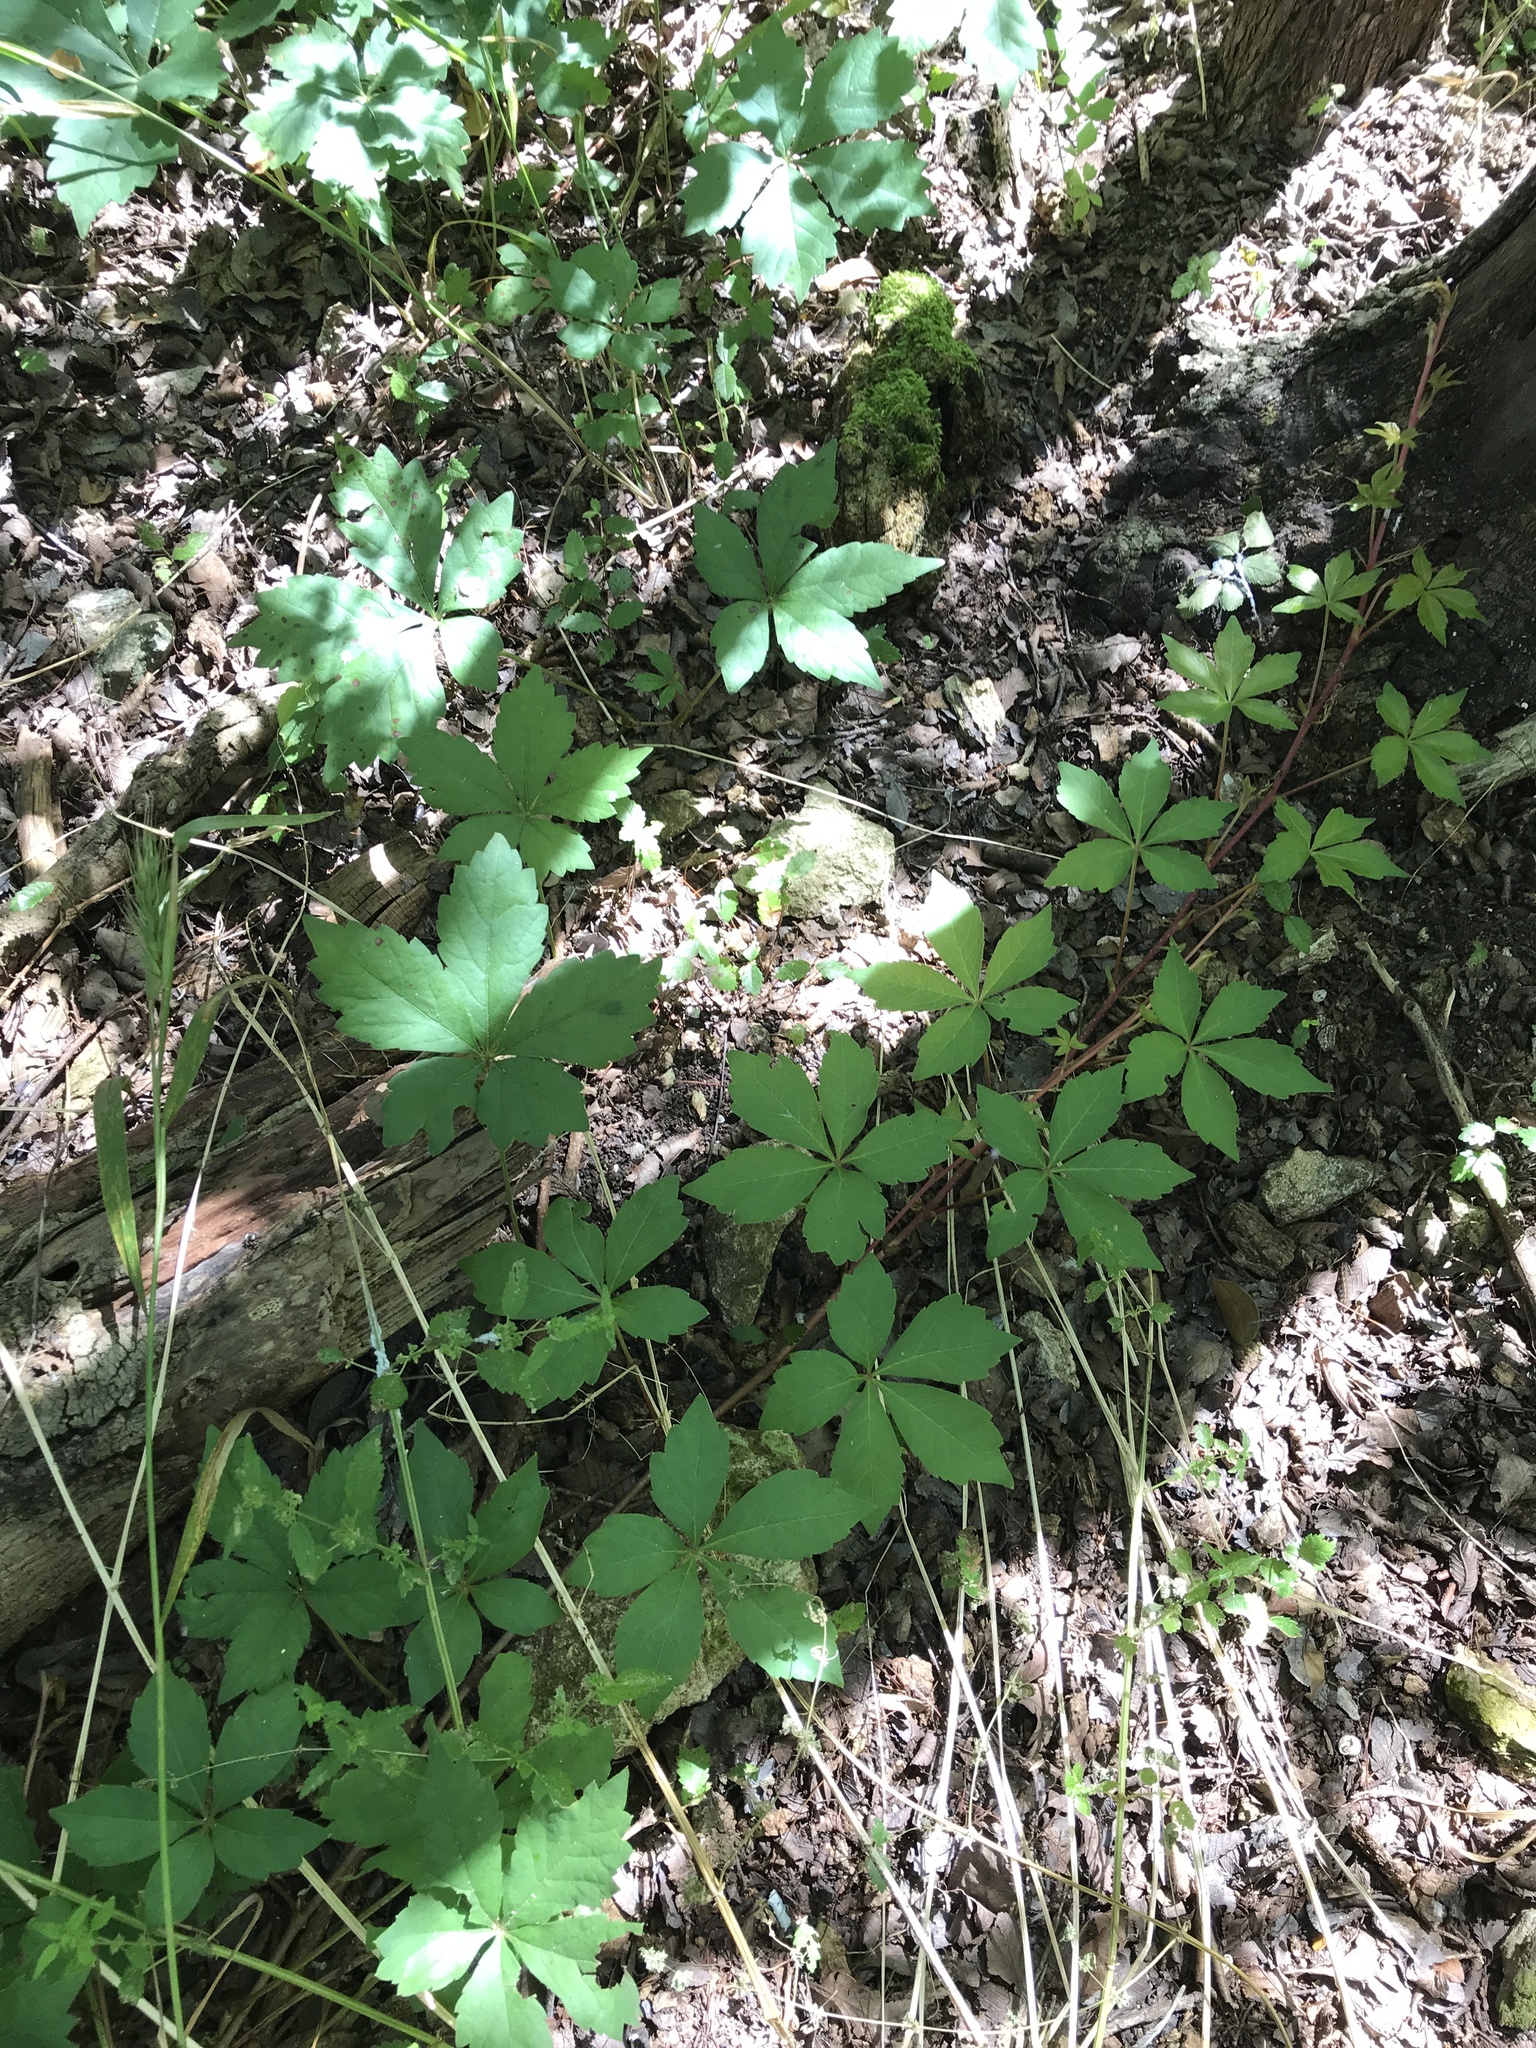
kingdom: Plantae
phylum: Tracheophyta
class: Magnoliopsida
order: Vitales
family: Vitaceae
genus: Parthenocissus
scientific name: Parthenocissus quinquefolia
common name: Virginia-creeper
